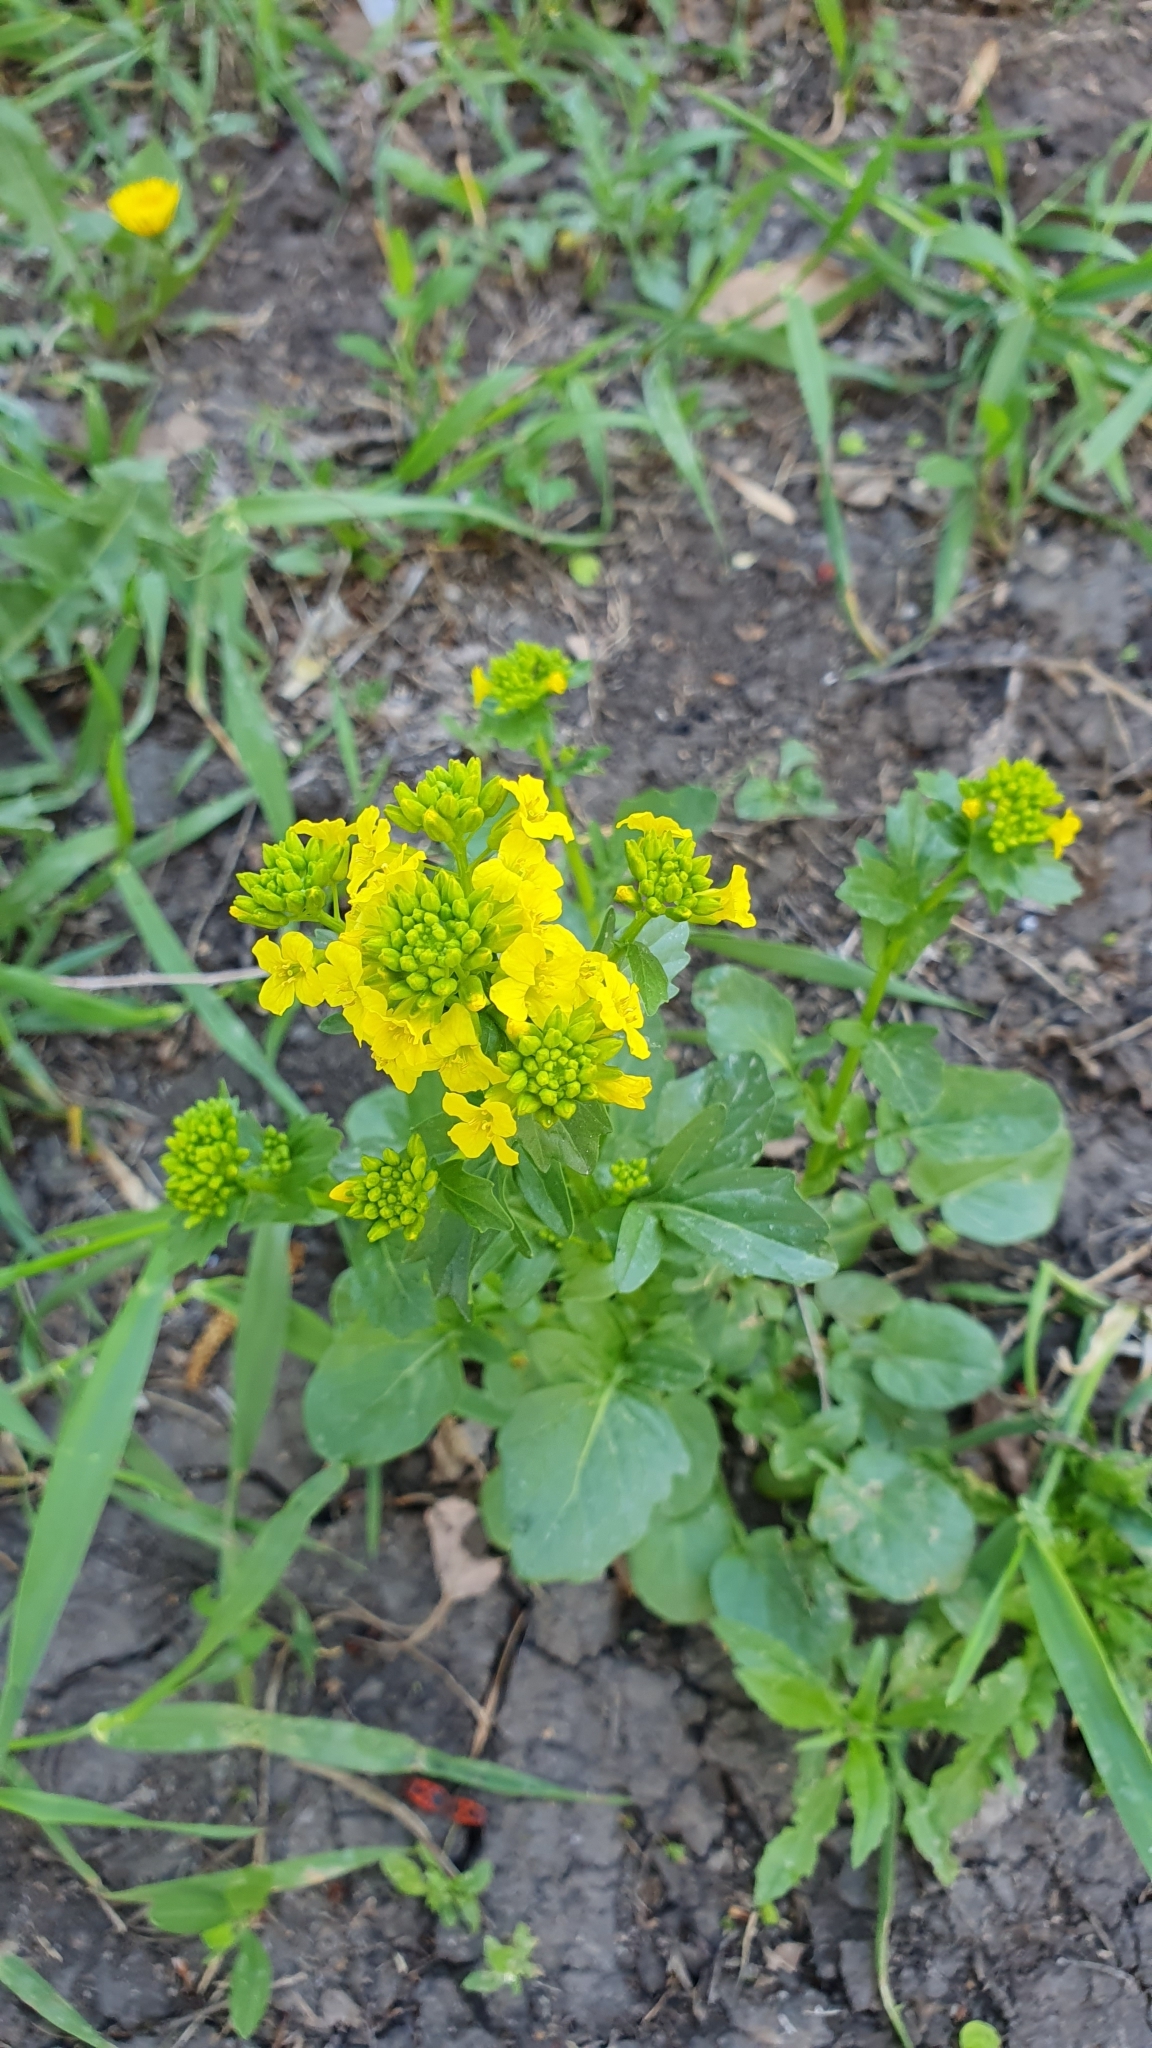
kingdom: Plantae
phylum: Tracheophyta
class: Magnoliopsida
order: Brassicales
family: Brassicaceae
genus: Barbarea
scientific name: Barbarea vulgaris
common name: Cressy-greens
